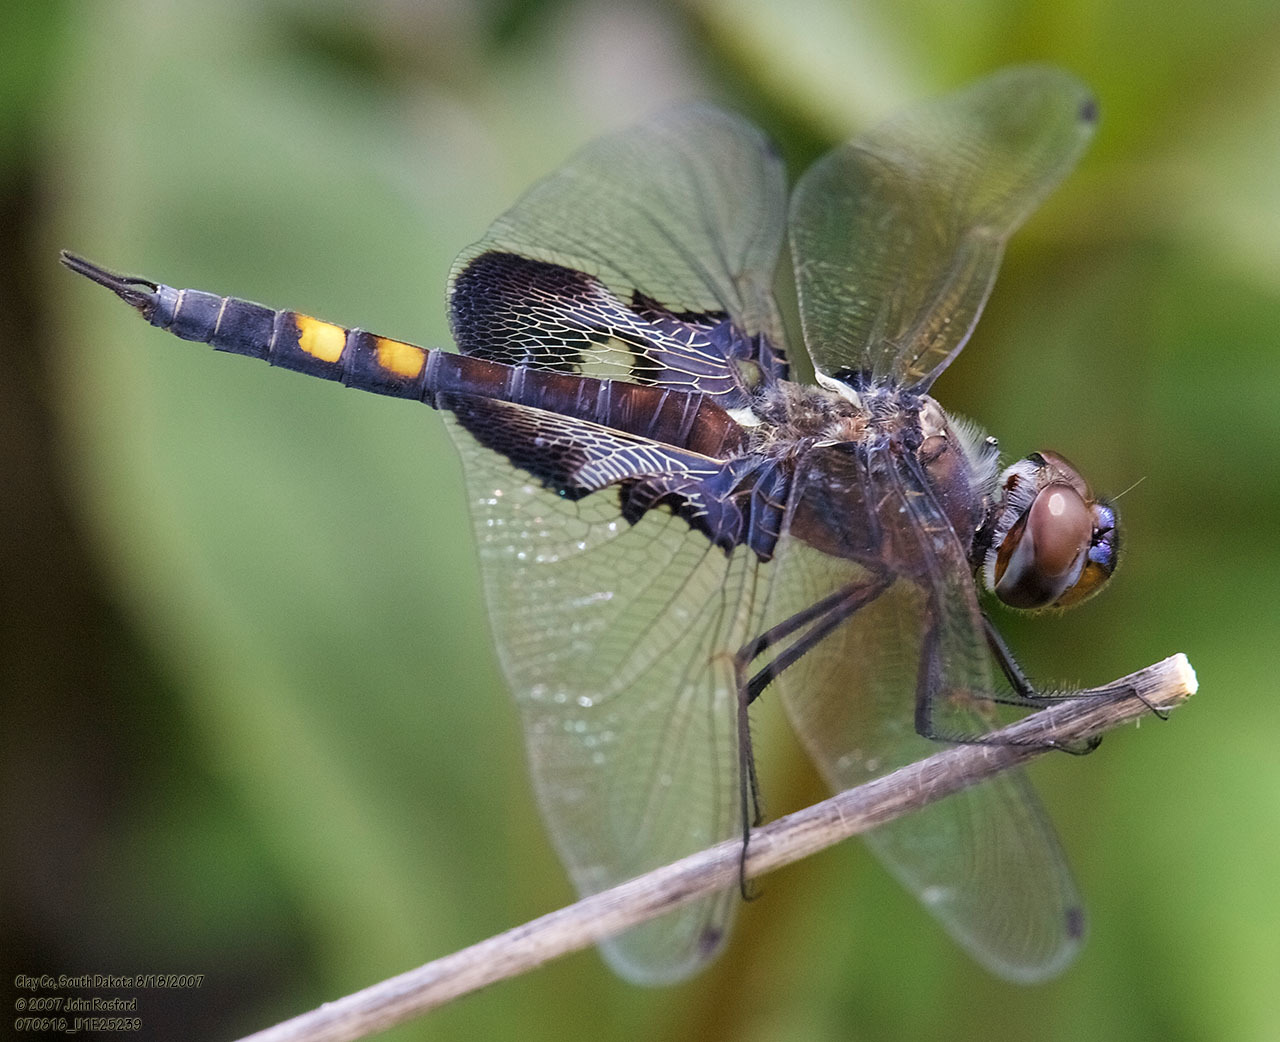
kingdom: Animalia
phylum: Arthropoda
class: Insecta
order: Odonata
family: Libellulidae
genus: Tramea
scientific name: Tramea lacerata
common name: Black saddlebags
